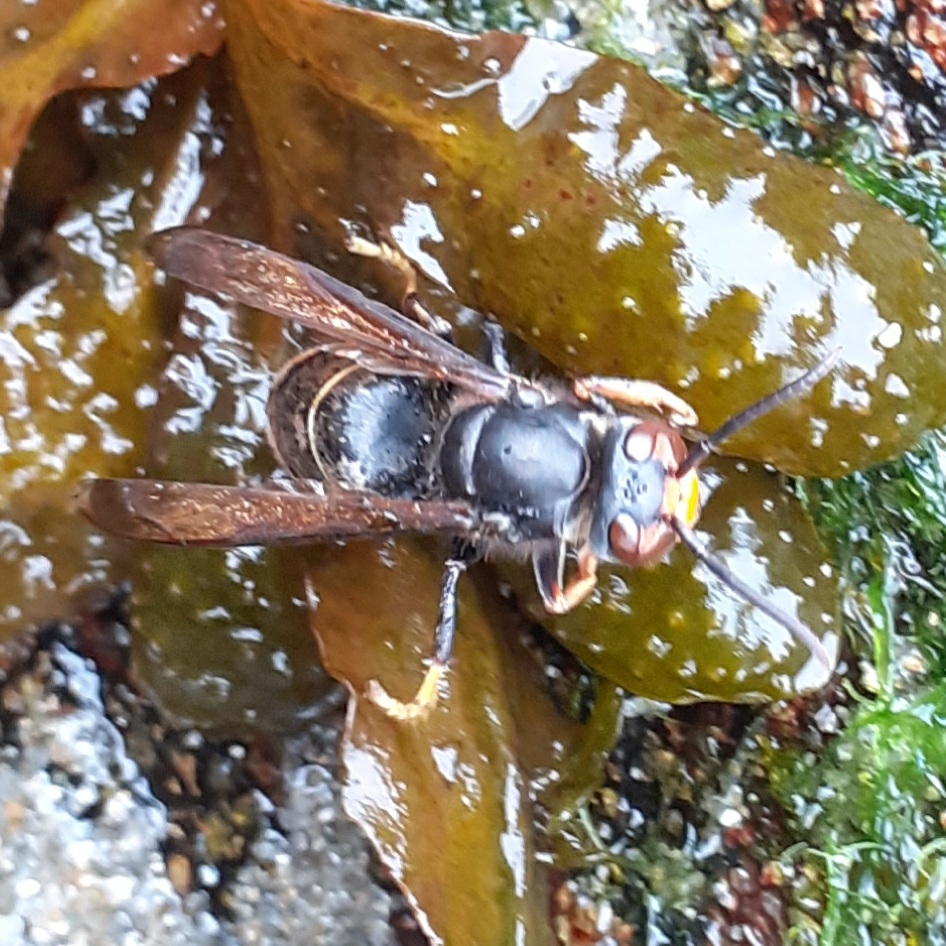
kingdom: Animalia
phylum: Arthropoda
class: Insecta
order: Hymenoptera
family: Vespidae
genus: Vespa
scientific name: Vespa velutina
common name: Asian hornet
